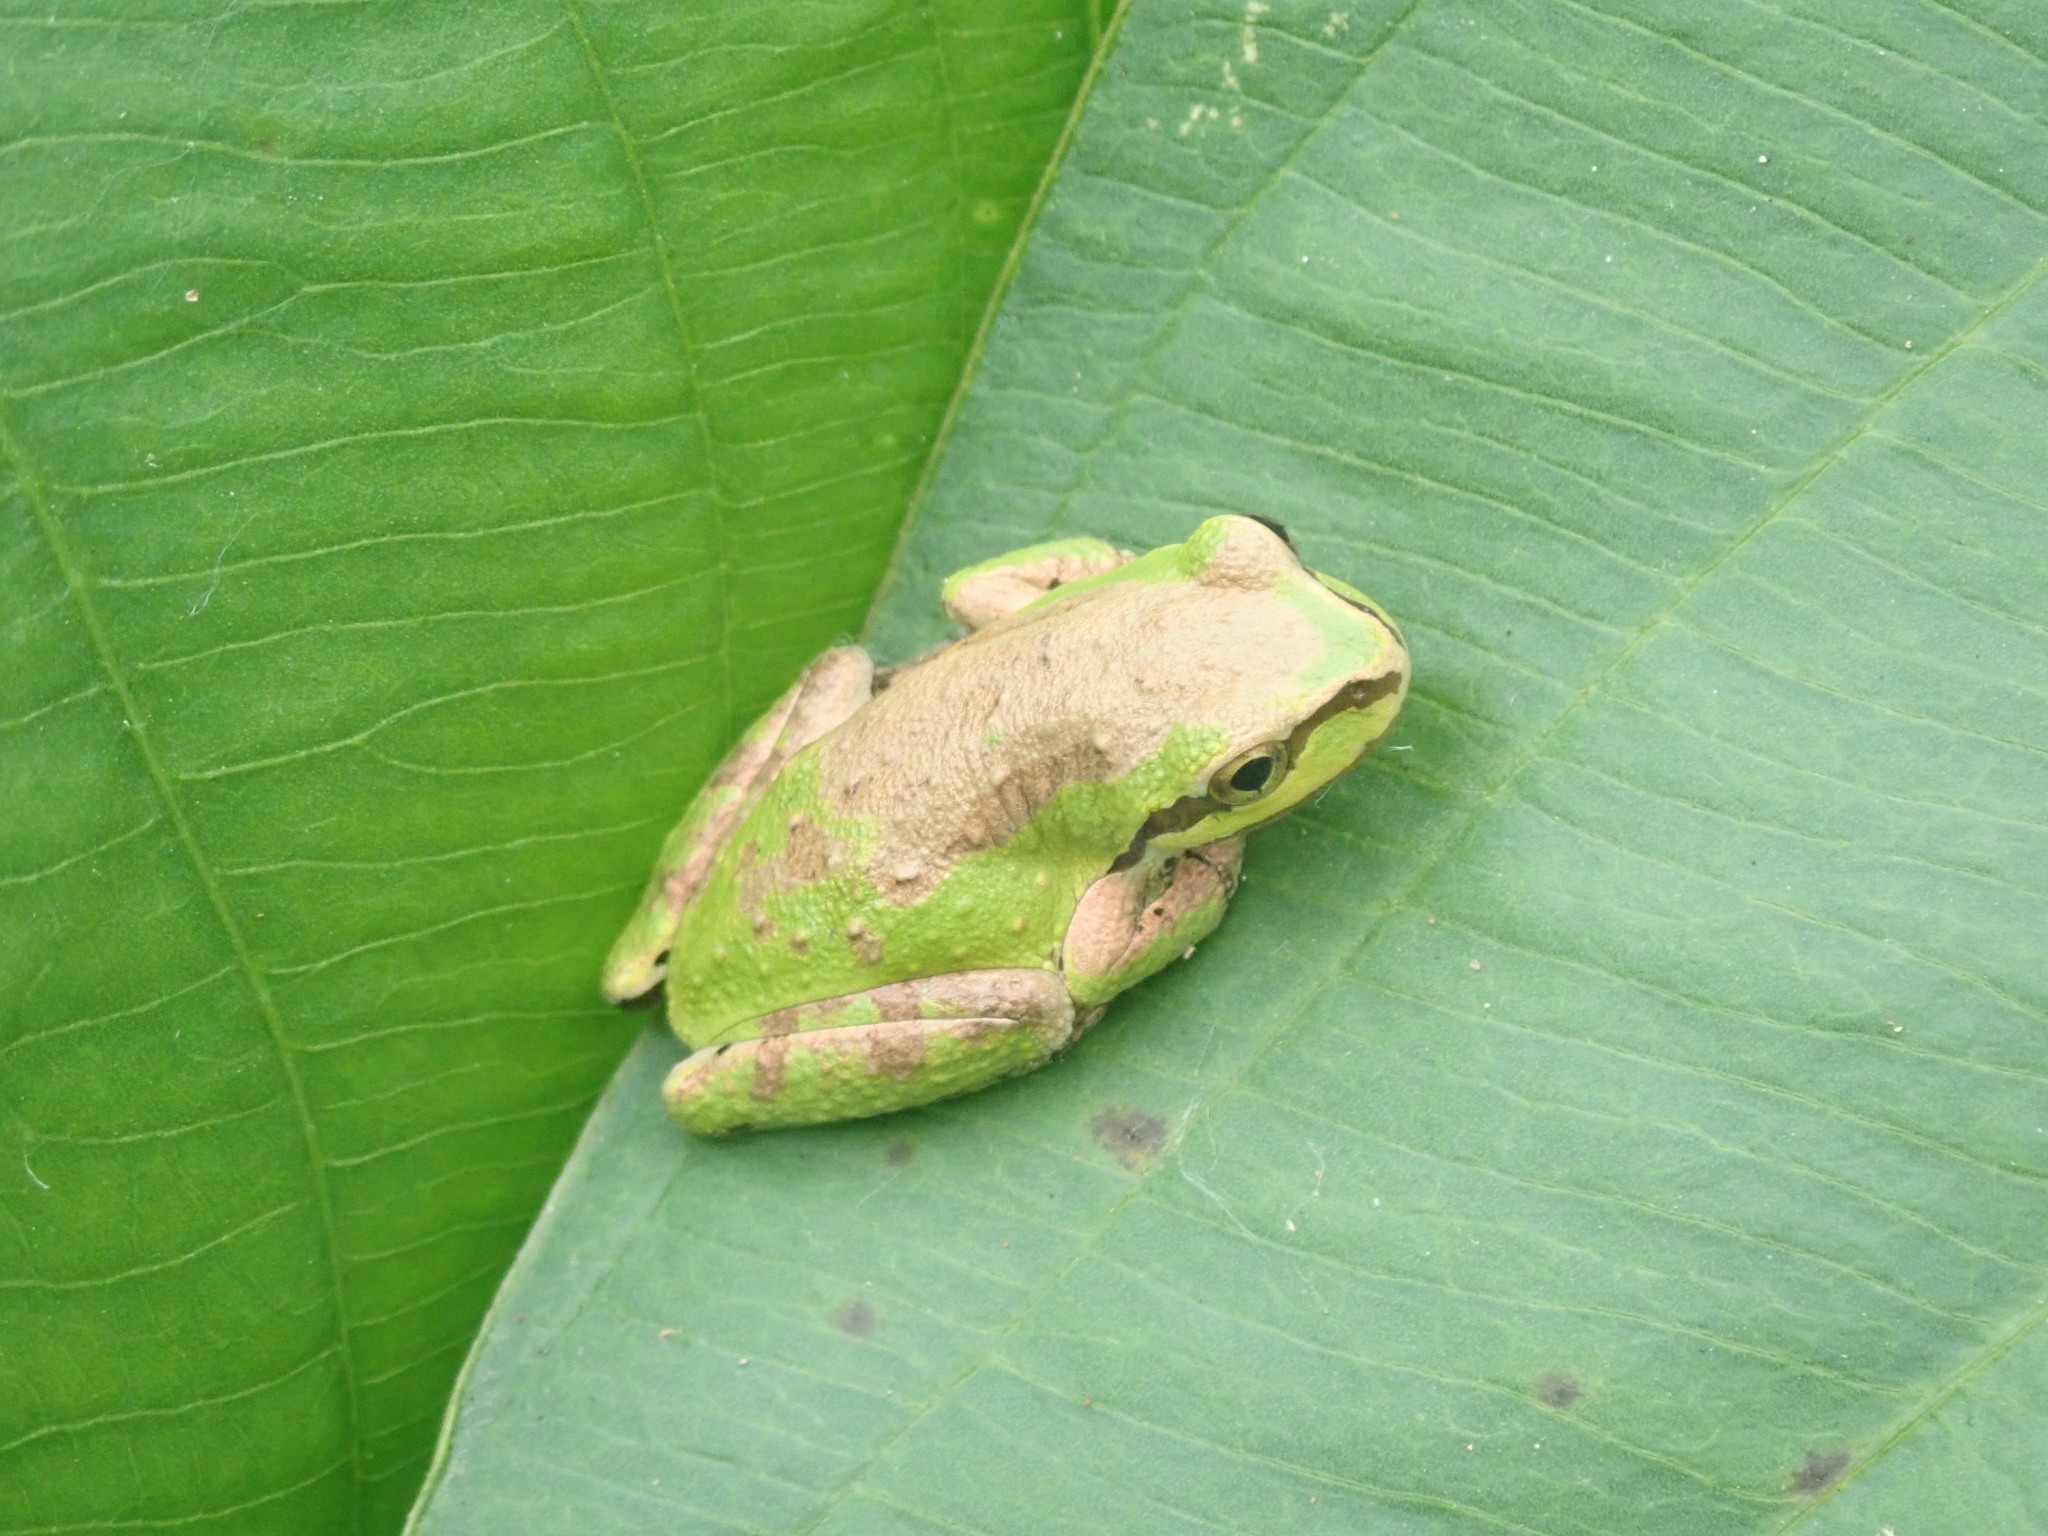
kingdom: Animalia
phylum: Chordata
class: Amphibia
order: Anura
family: Hylidae
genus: Pseudacris
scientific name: Pseudacris regilla
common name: Pacific chorus frog
